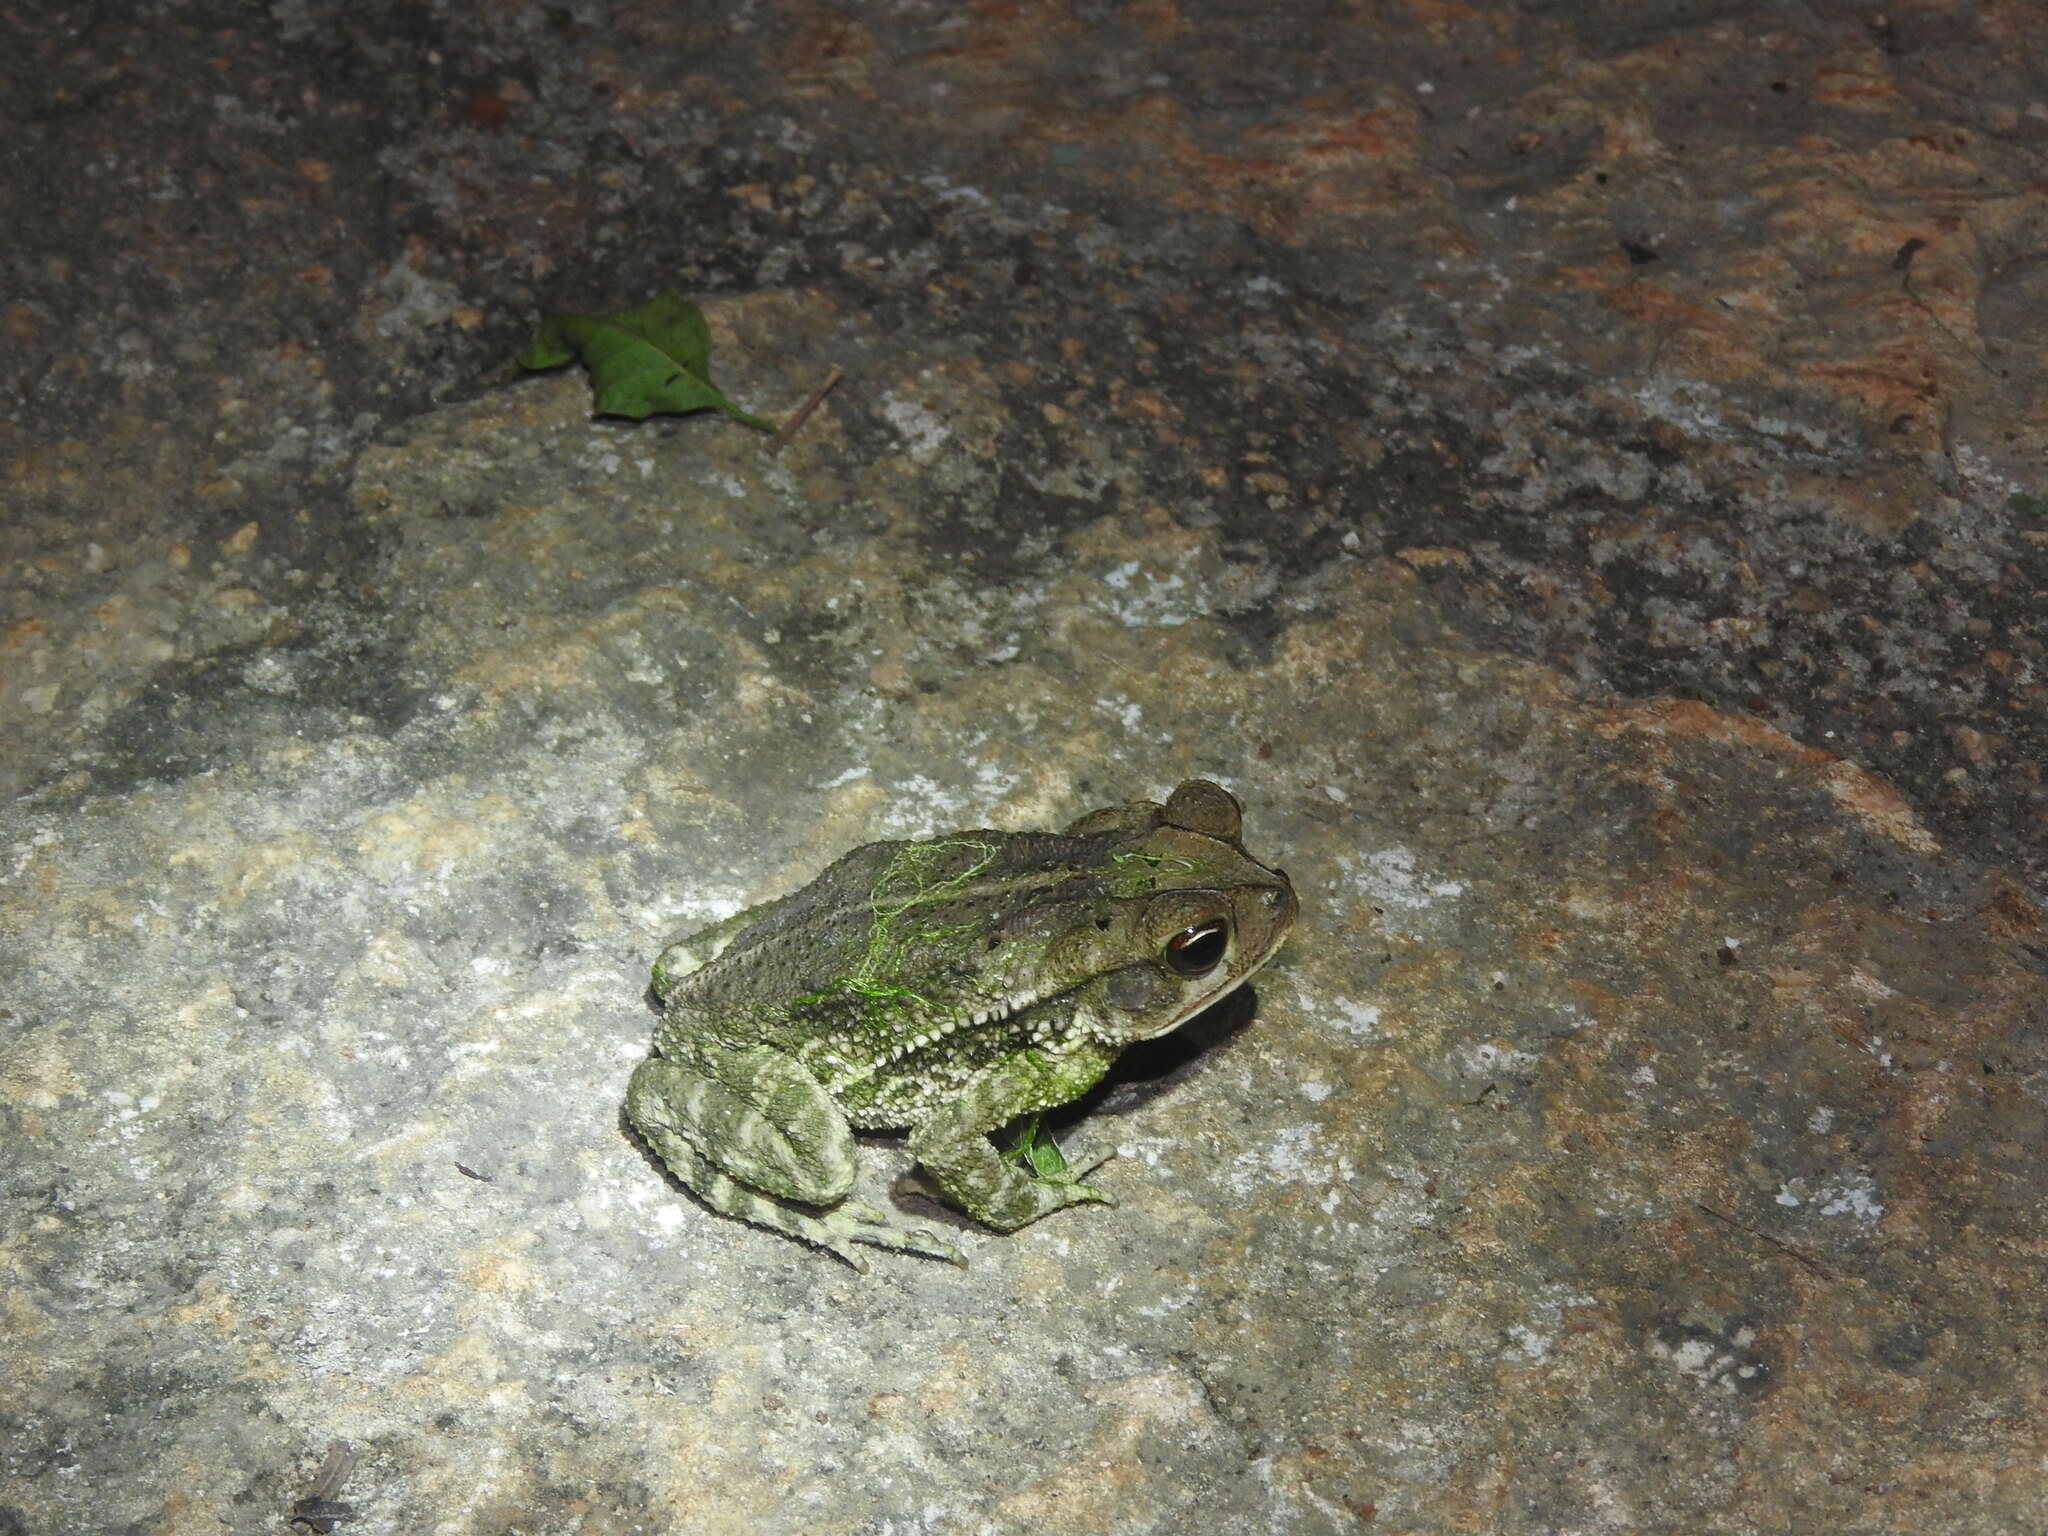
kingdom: Animalia
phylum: Chordata
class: Amphibia
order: Anura
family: Bufonidae
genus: Incilius
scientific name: Incilius valliceps
